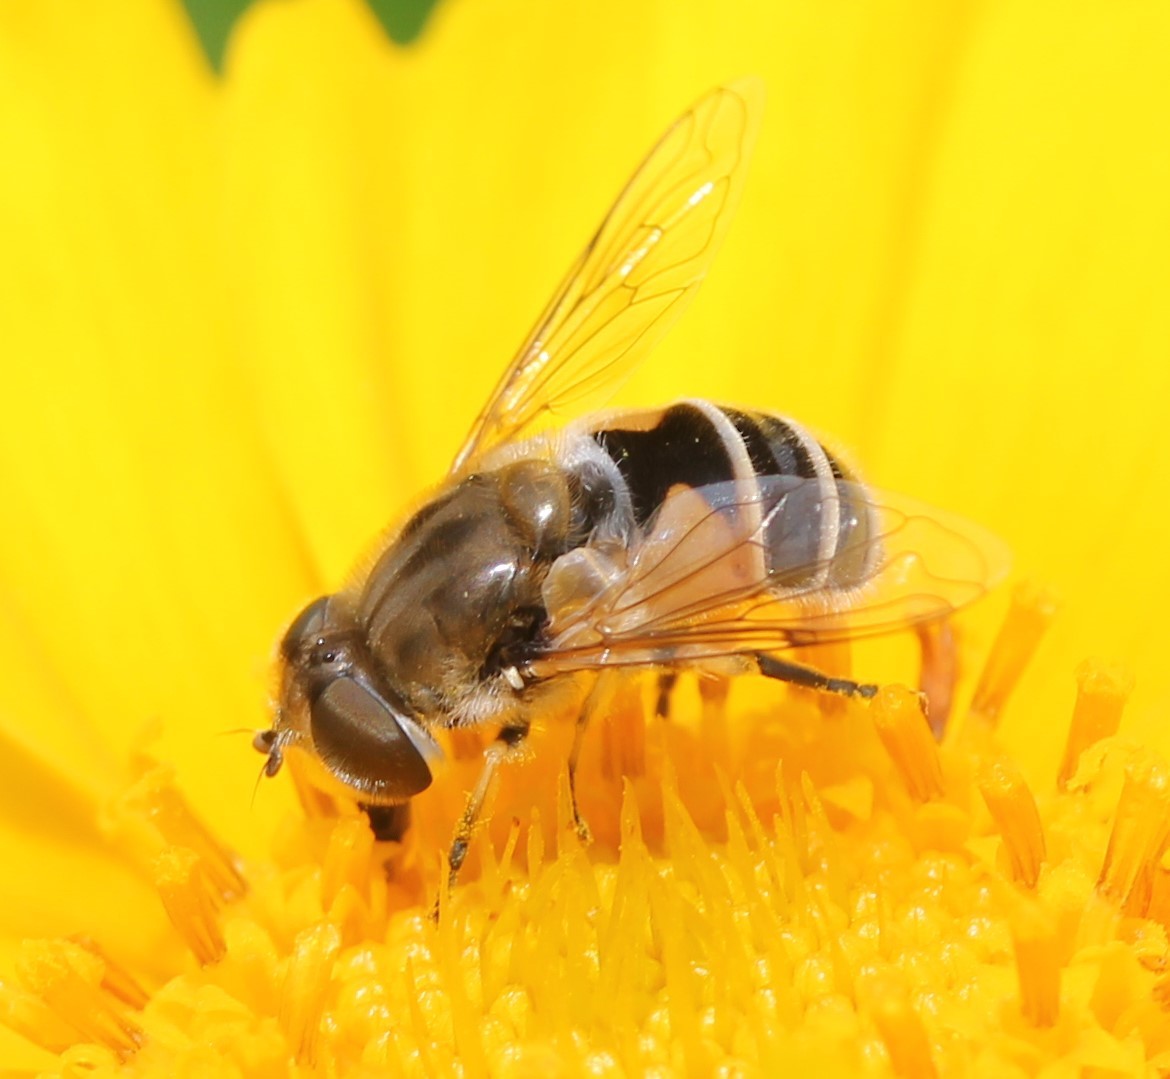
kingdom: Animalia
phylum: Arthropoda
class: Insecta
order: Diptera
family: Syrphidae
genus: Eristalis
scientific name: Eristalis arbustorum
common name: Hover fly
